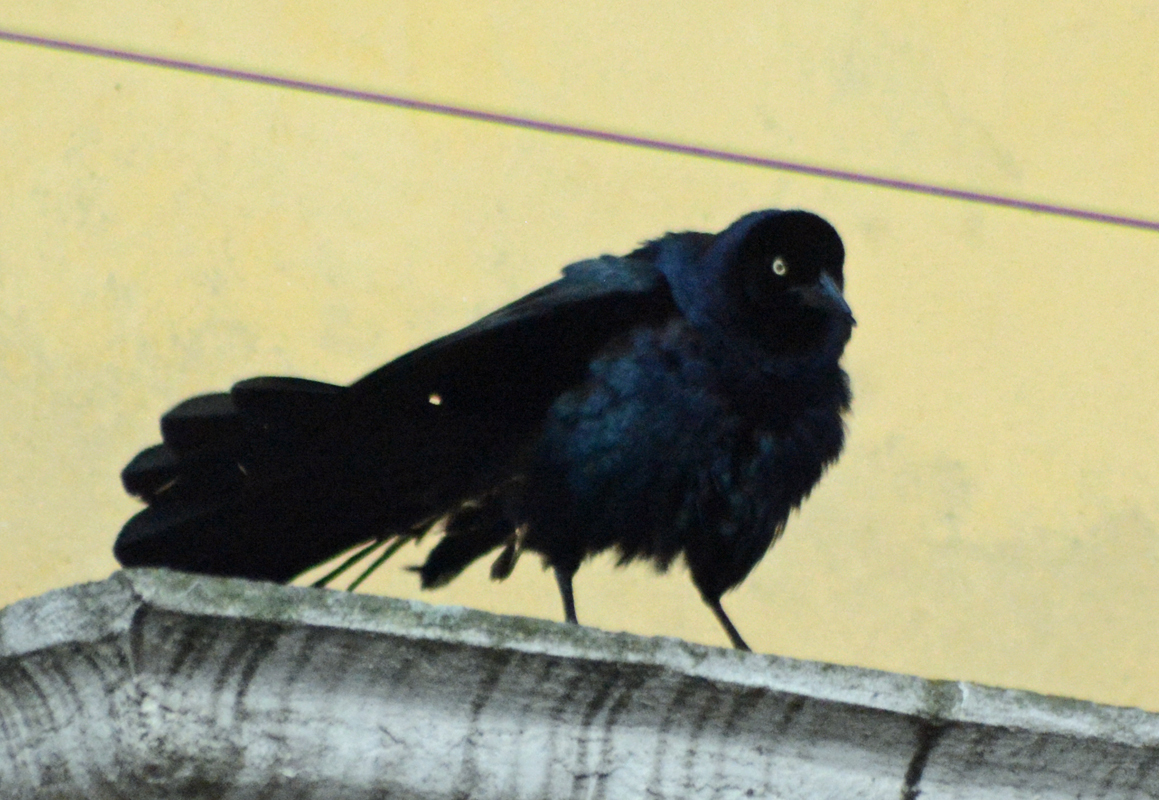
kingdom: Animalia
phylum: Chordata
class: Aves
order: Passeriformes
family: Icteridae
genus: Quiscalus
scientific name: Quiscalus mexicanus
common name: Great-tailed grackle
